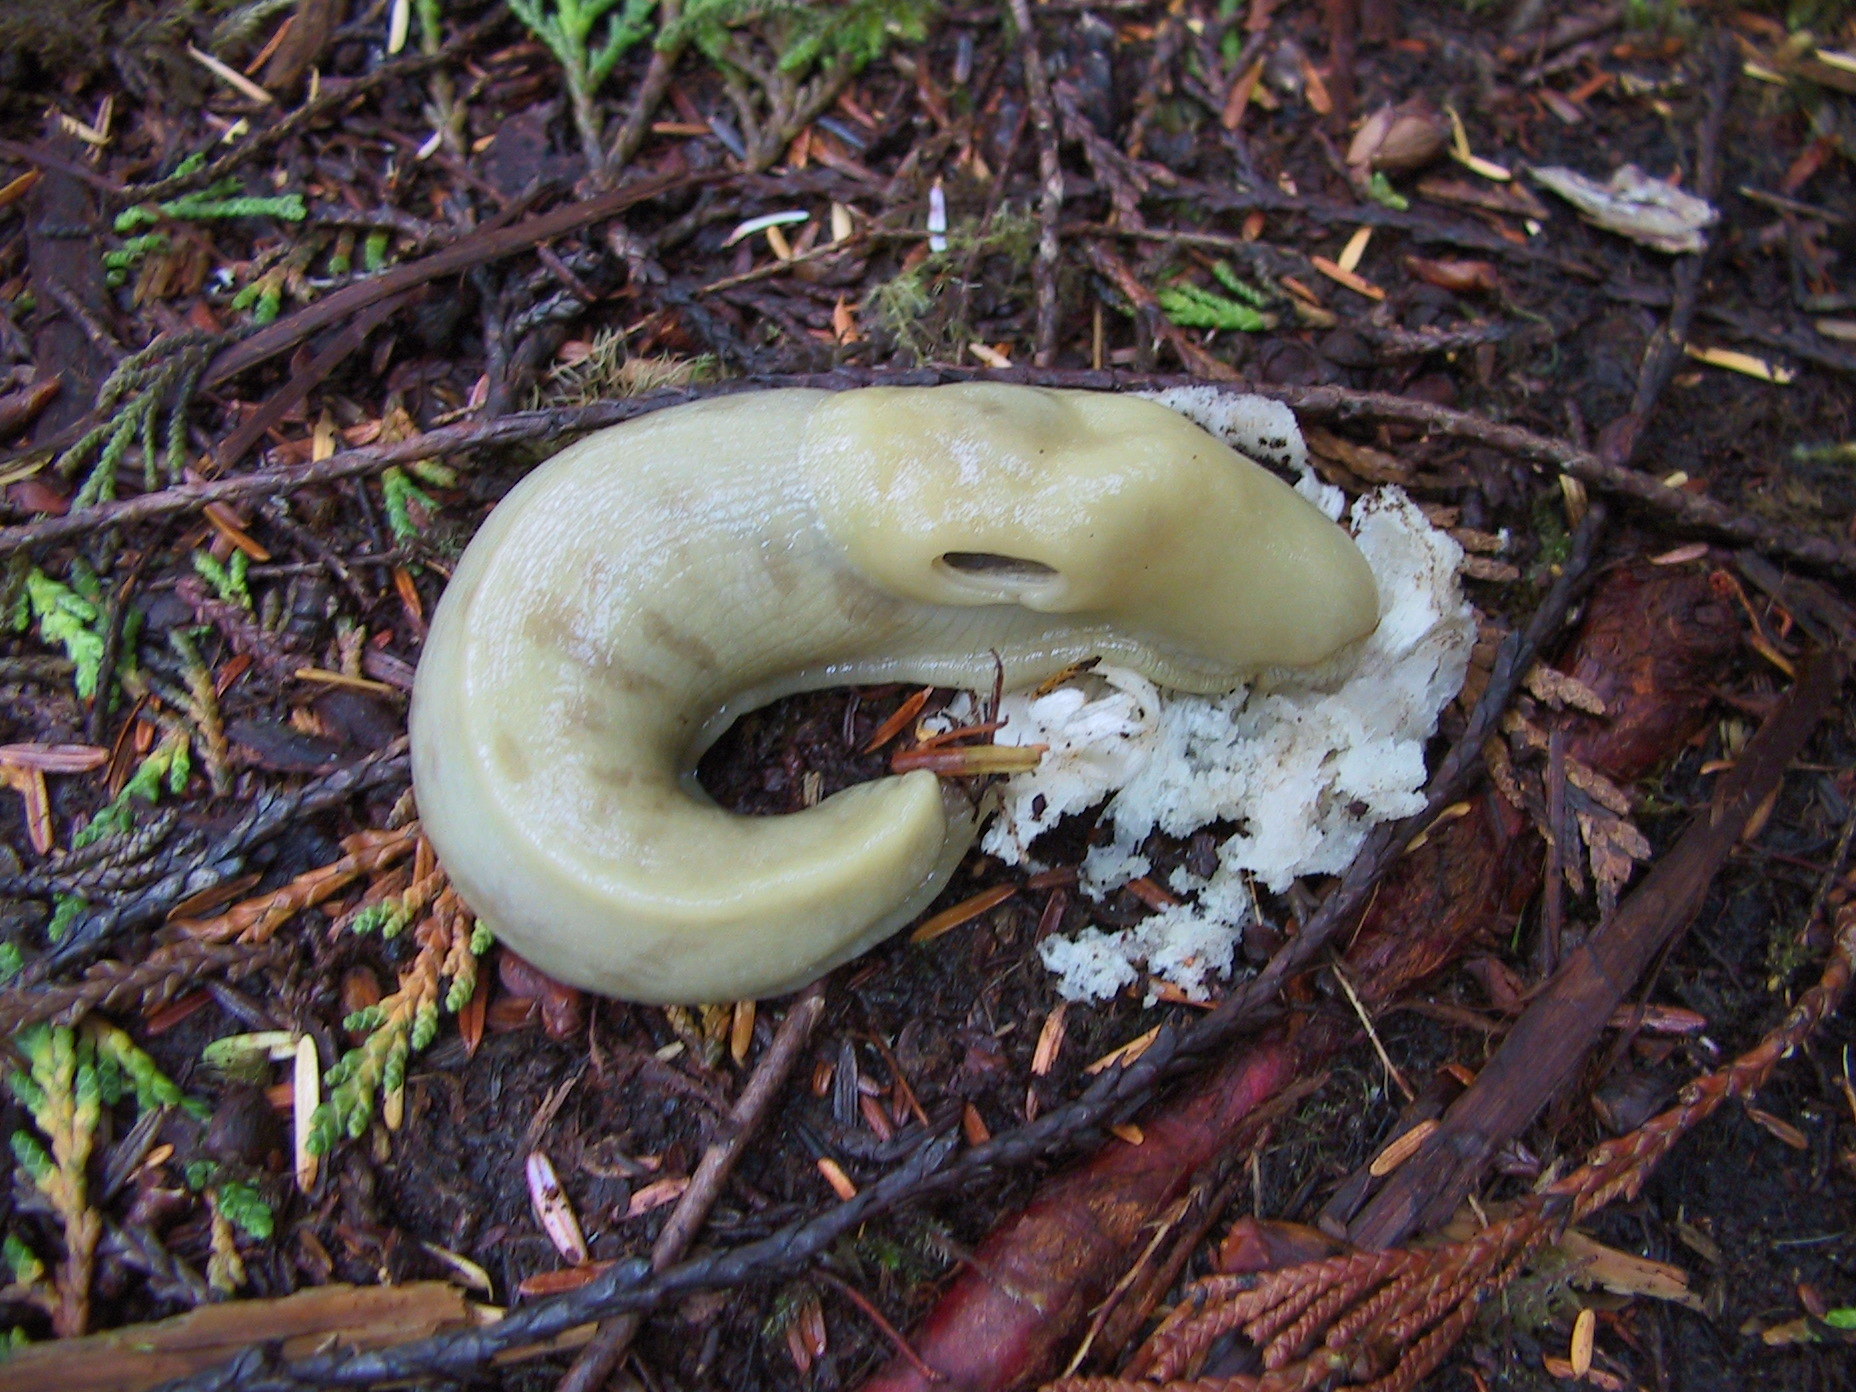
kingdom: Animalia
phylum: Mollusca
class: Gastropoda
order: Stylommatophora
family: Ariolimacidae
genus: Ariolimax
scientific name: Ariolimax columbianus
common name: Pacific banana slug
